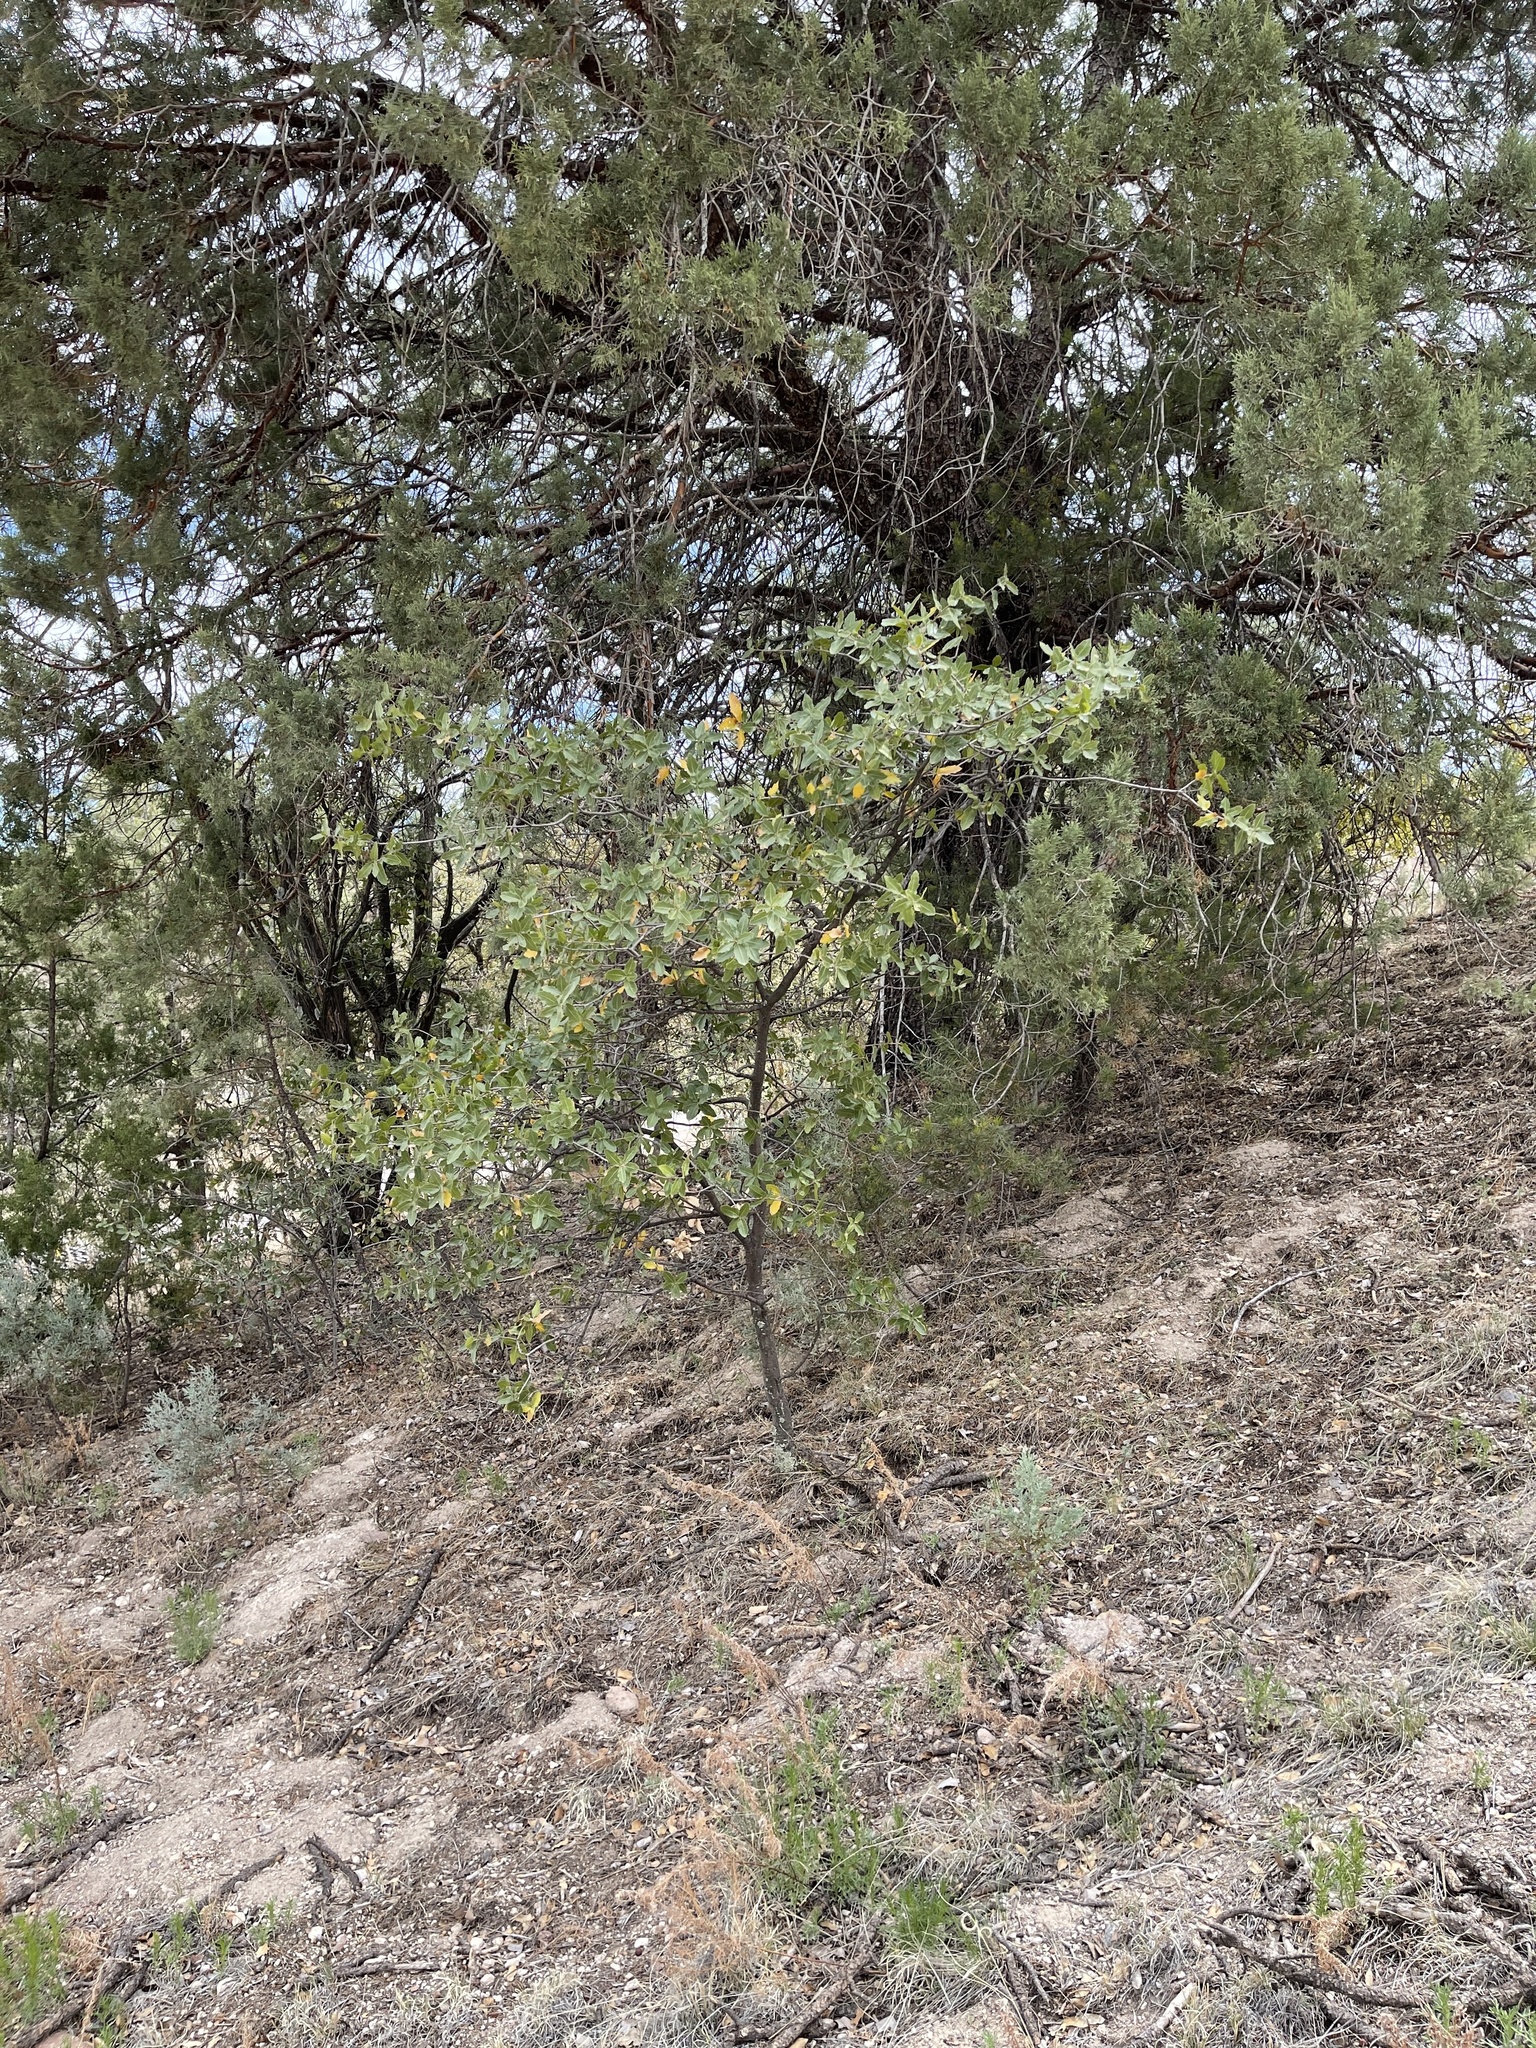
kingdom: Plantae
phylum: Tracheophyta
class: Magnoliopsida
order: Fagales
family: Fagaceae
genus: Quercus
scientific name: Quercus emoryi
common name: Emory oak
